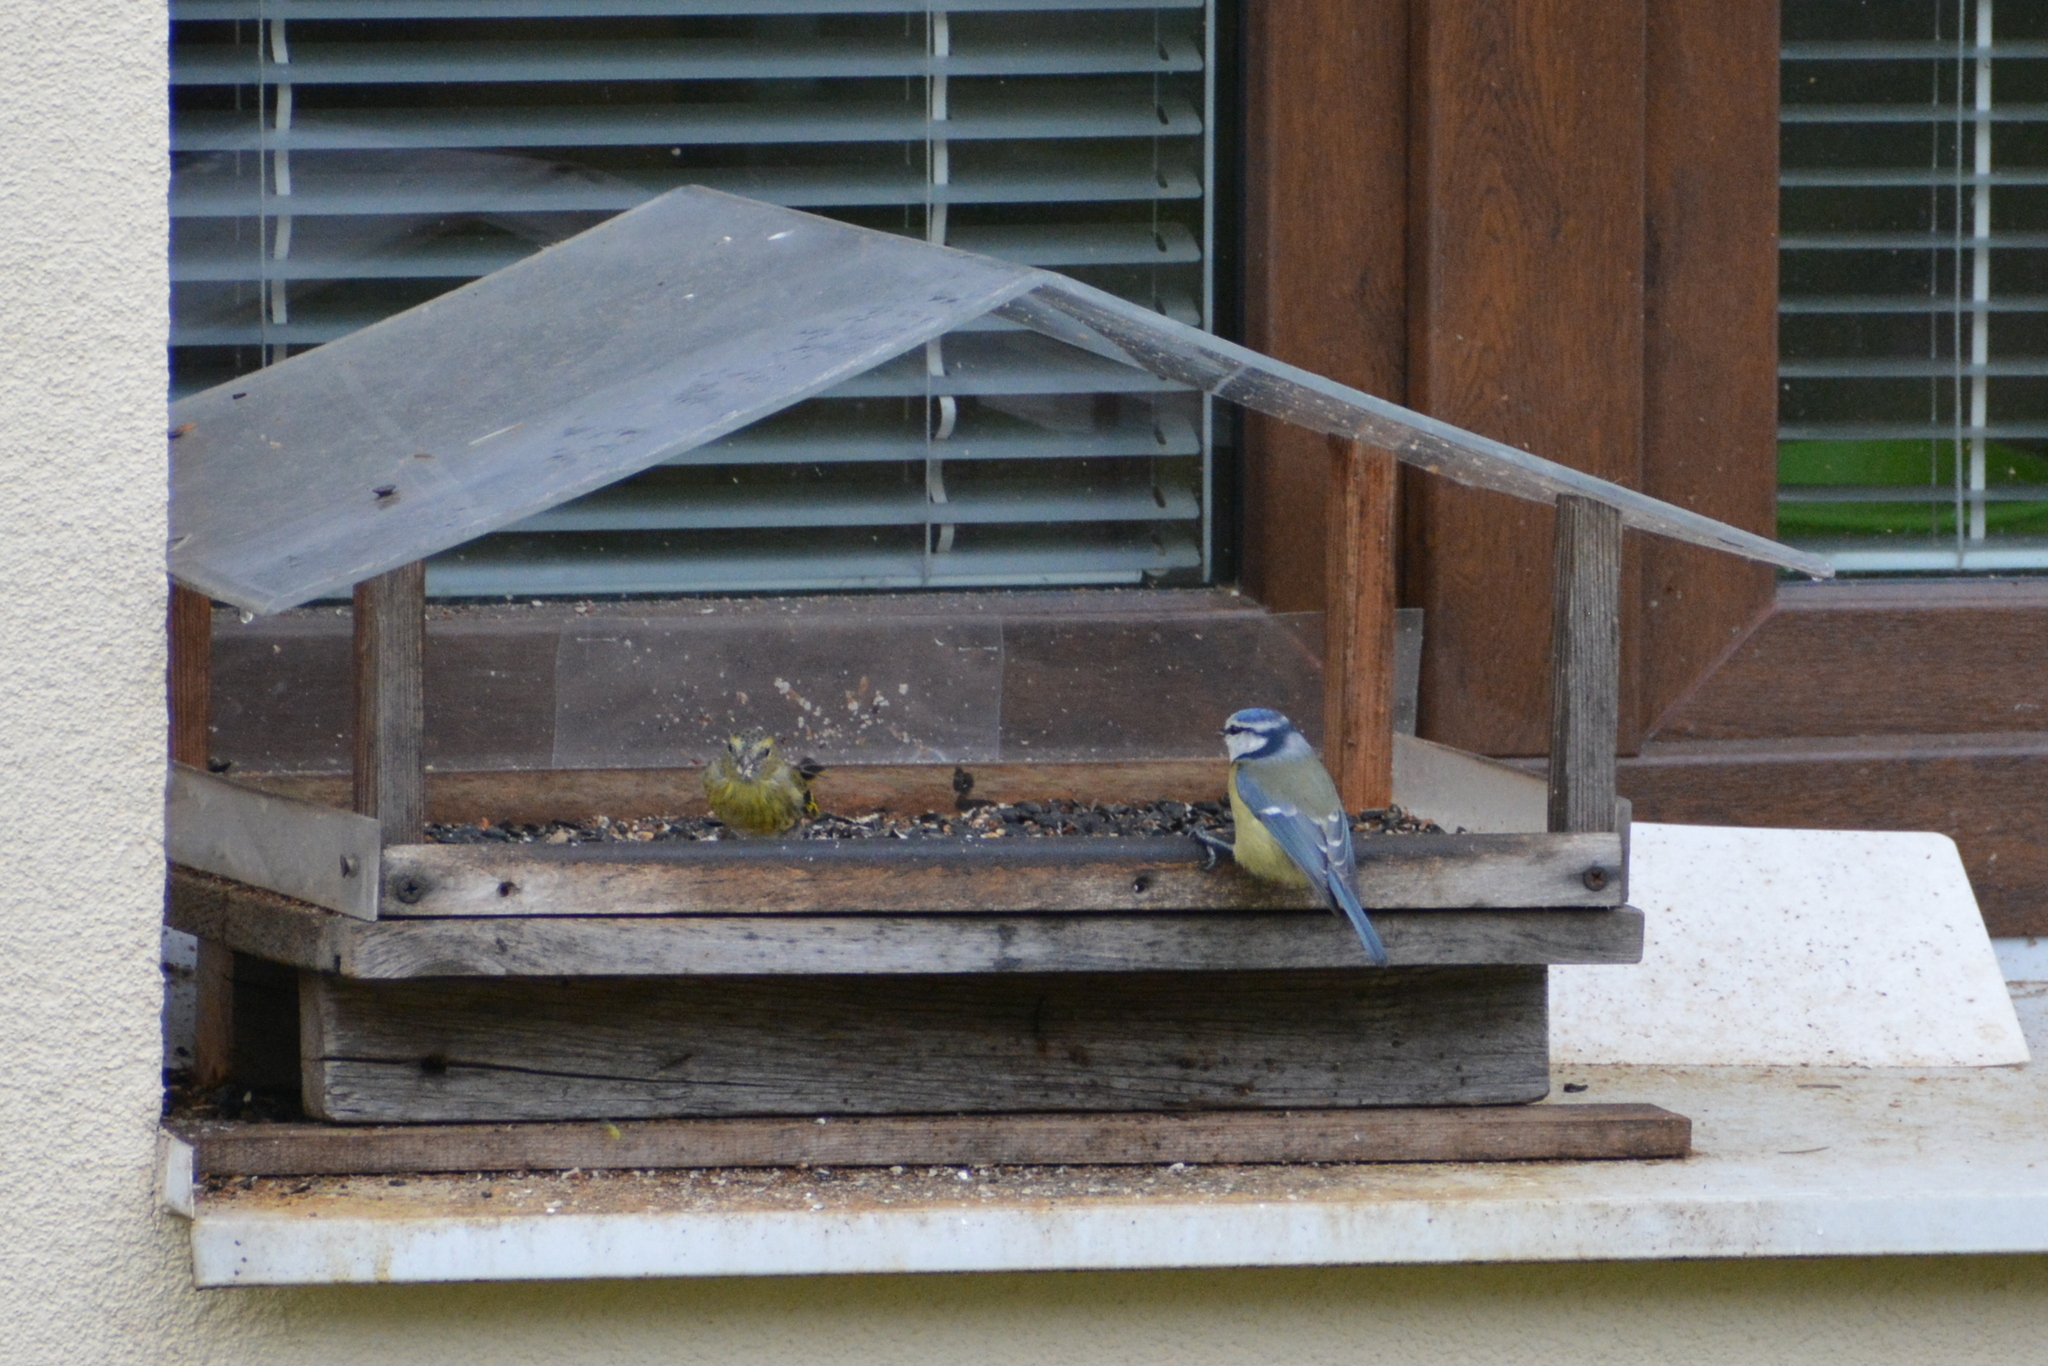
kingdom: Animalia
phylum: Chordata
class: Aves
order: Passeriformes
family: Paridae
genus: Cyanistes
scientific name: Cyanistes caeruleus
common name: Eurasian blue tit
